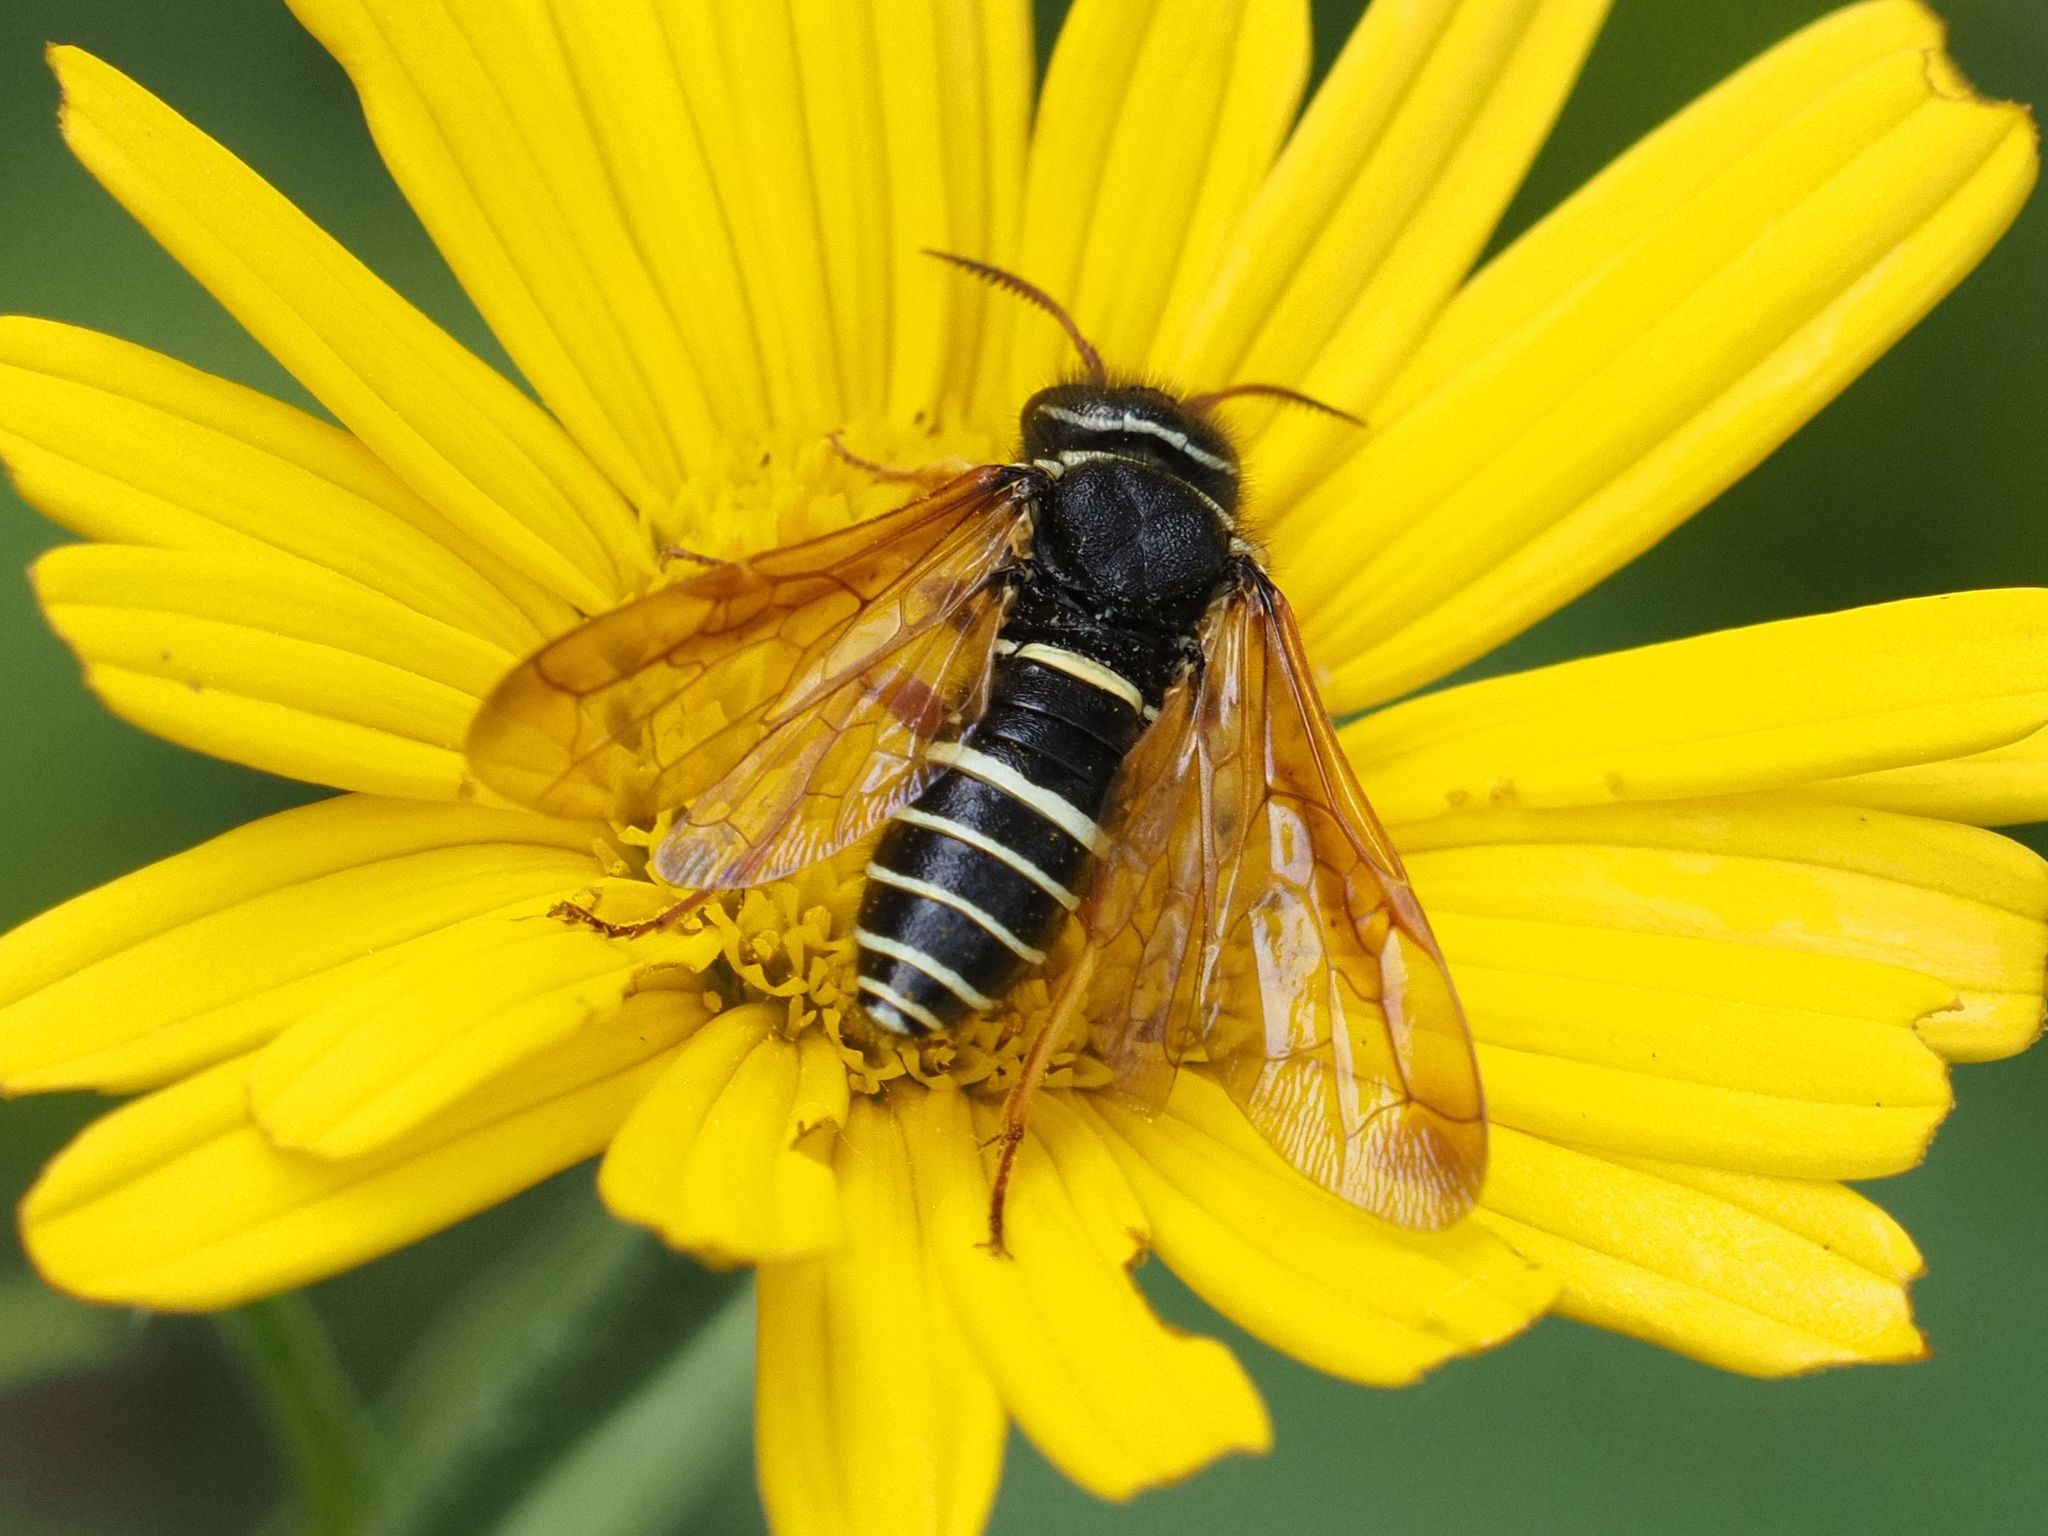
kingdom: Animalia
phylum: Arthropoda
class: Insecta
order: Hymenoptera
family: Megalodontesidae
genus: Megalodontes
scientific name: Megalodontes cephalotes
